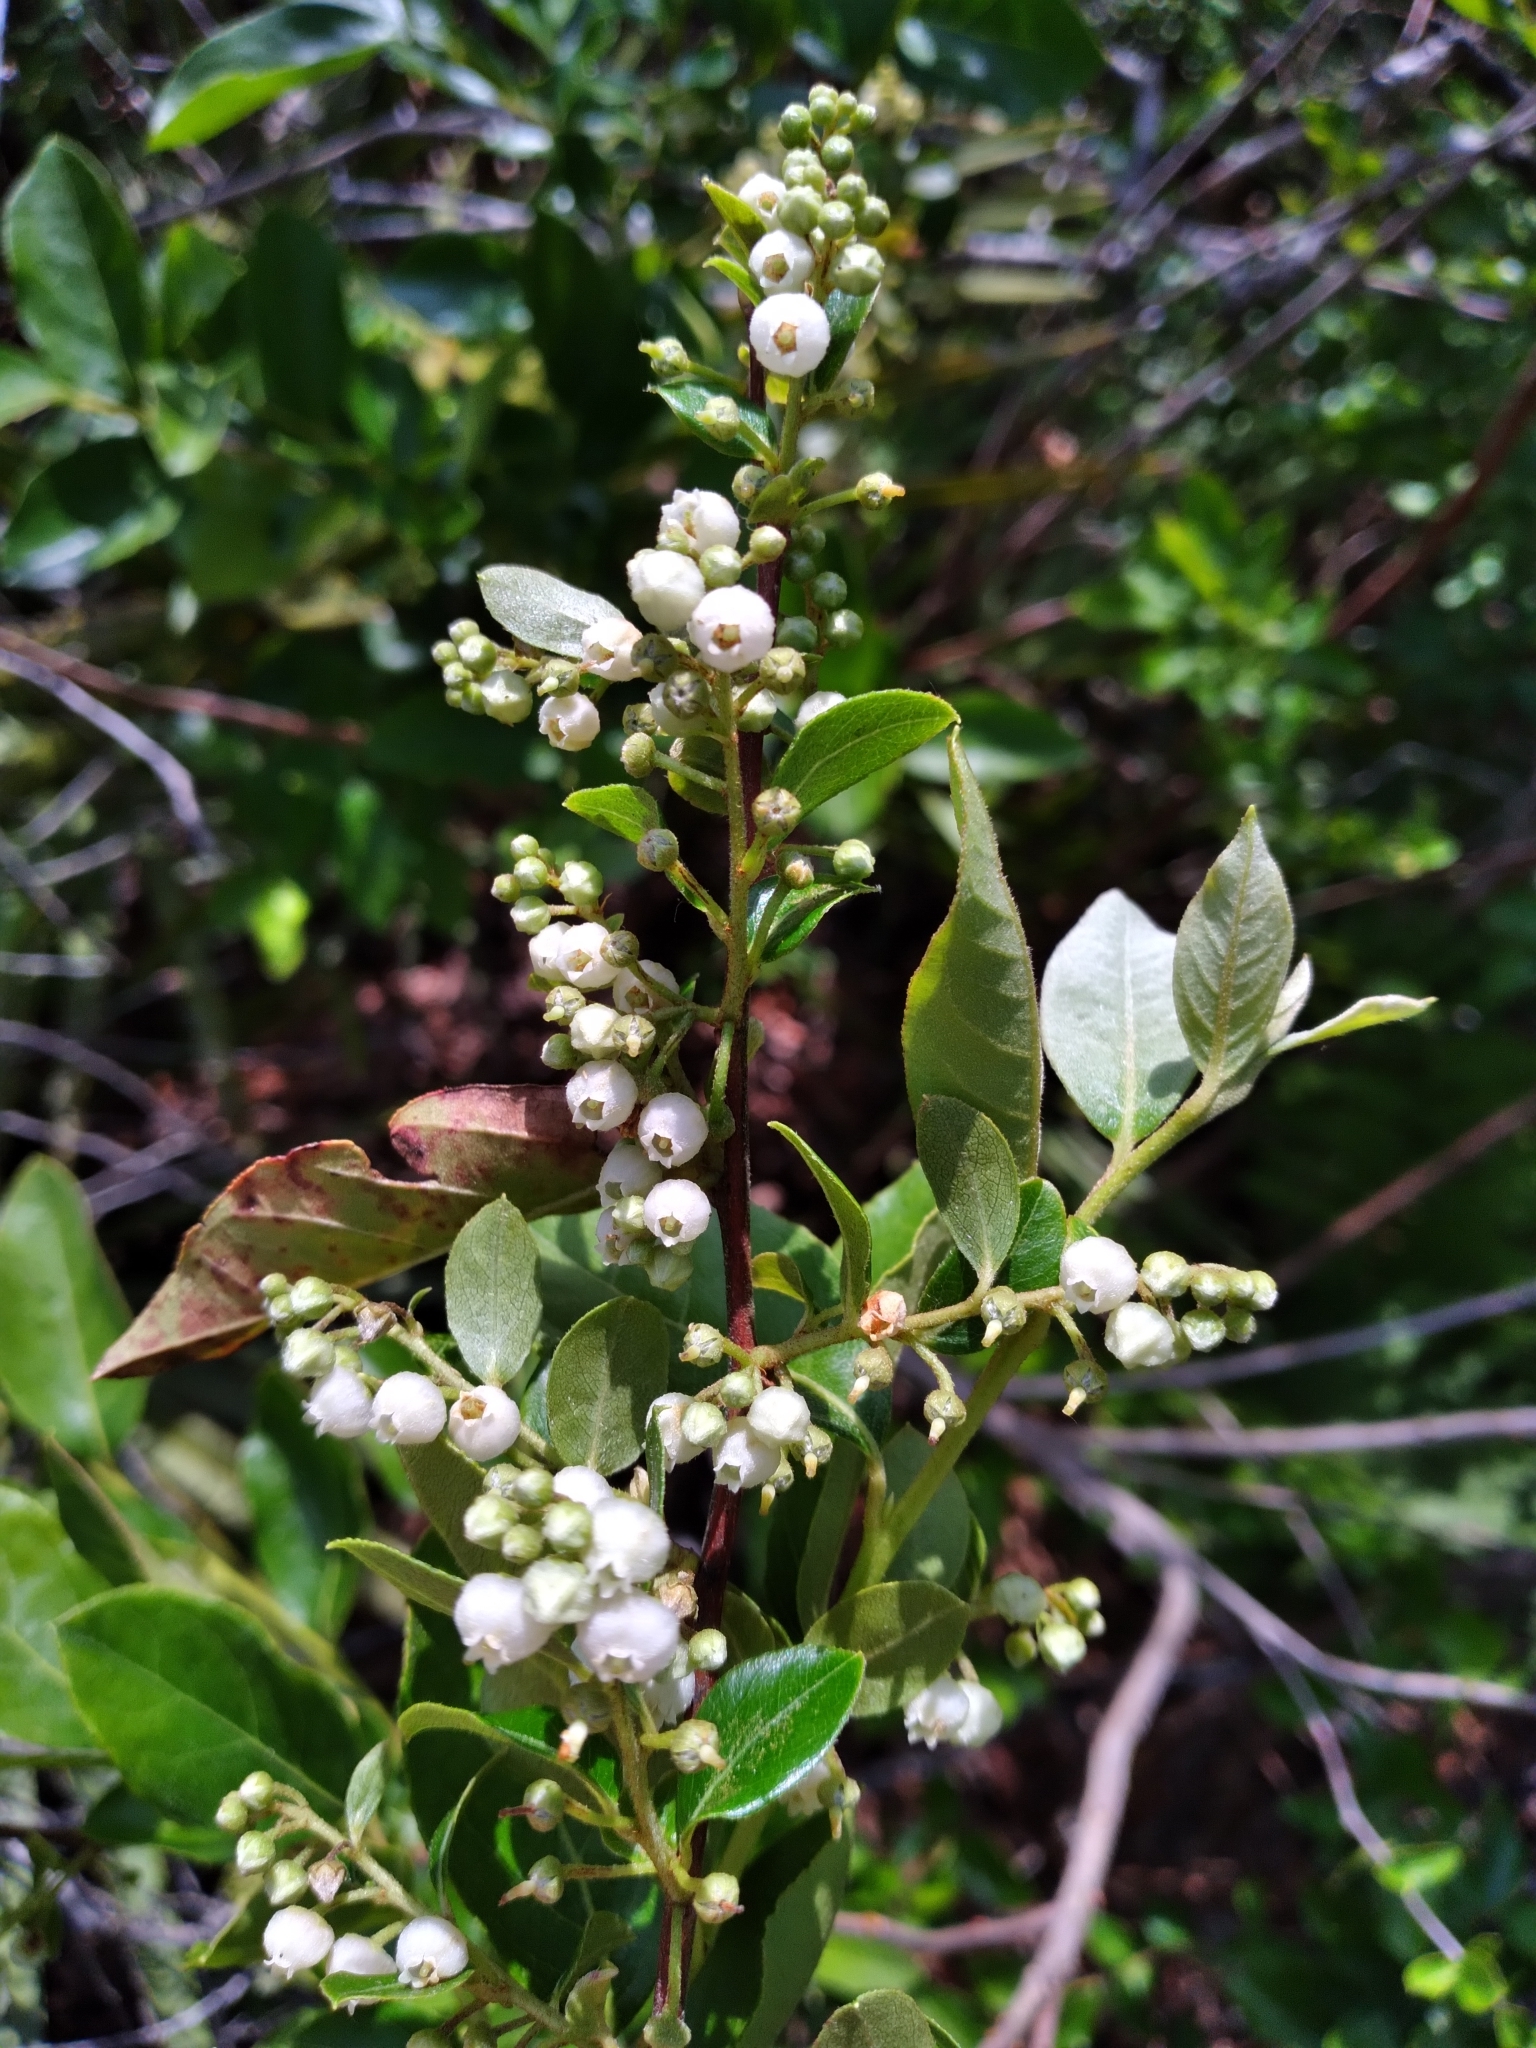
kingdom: Plantae
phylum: Tracheophyta
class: Magnoliopsida
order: Ericales
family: Ericaceae
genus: Lyonia
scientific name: Lyonia ligustrina
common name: Maleberry
